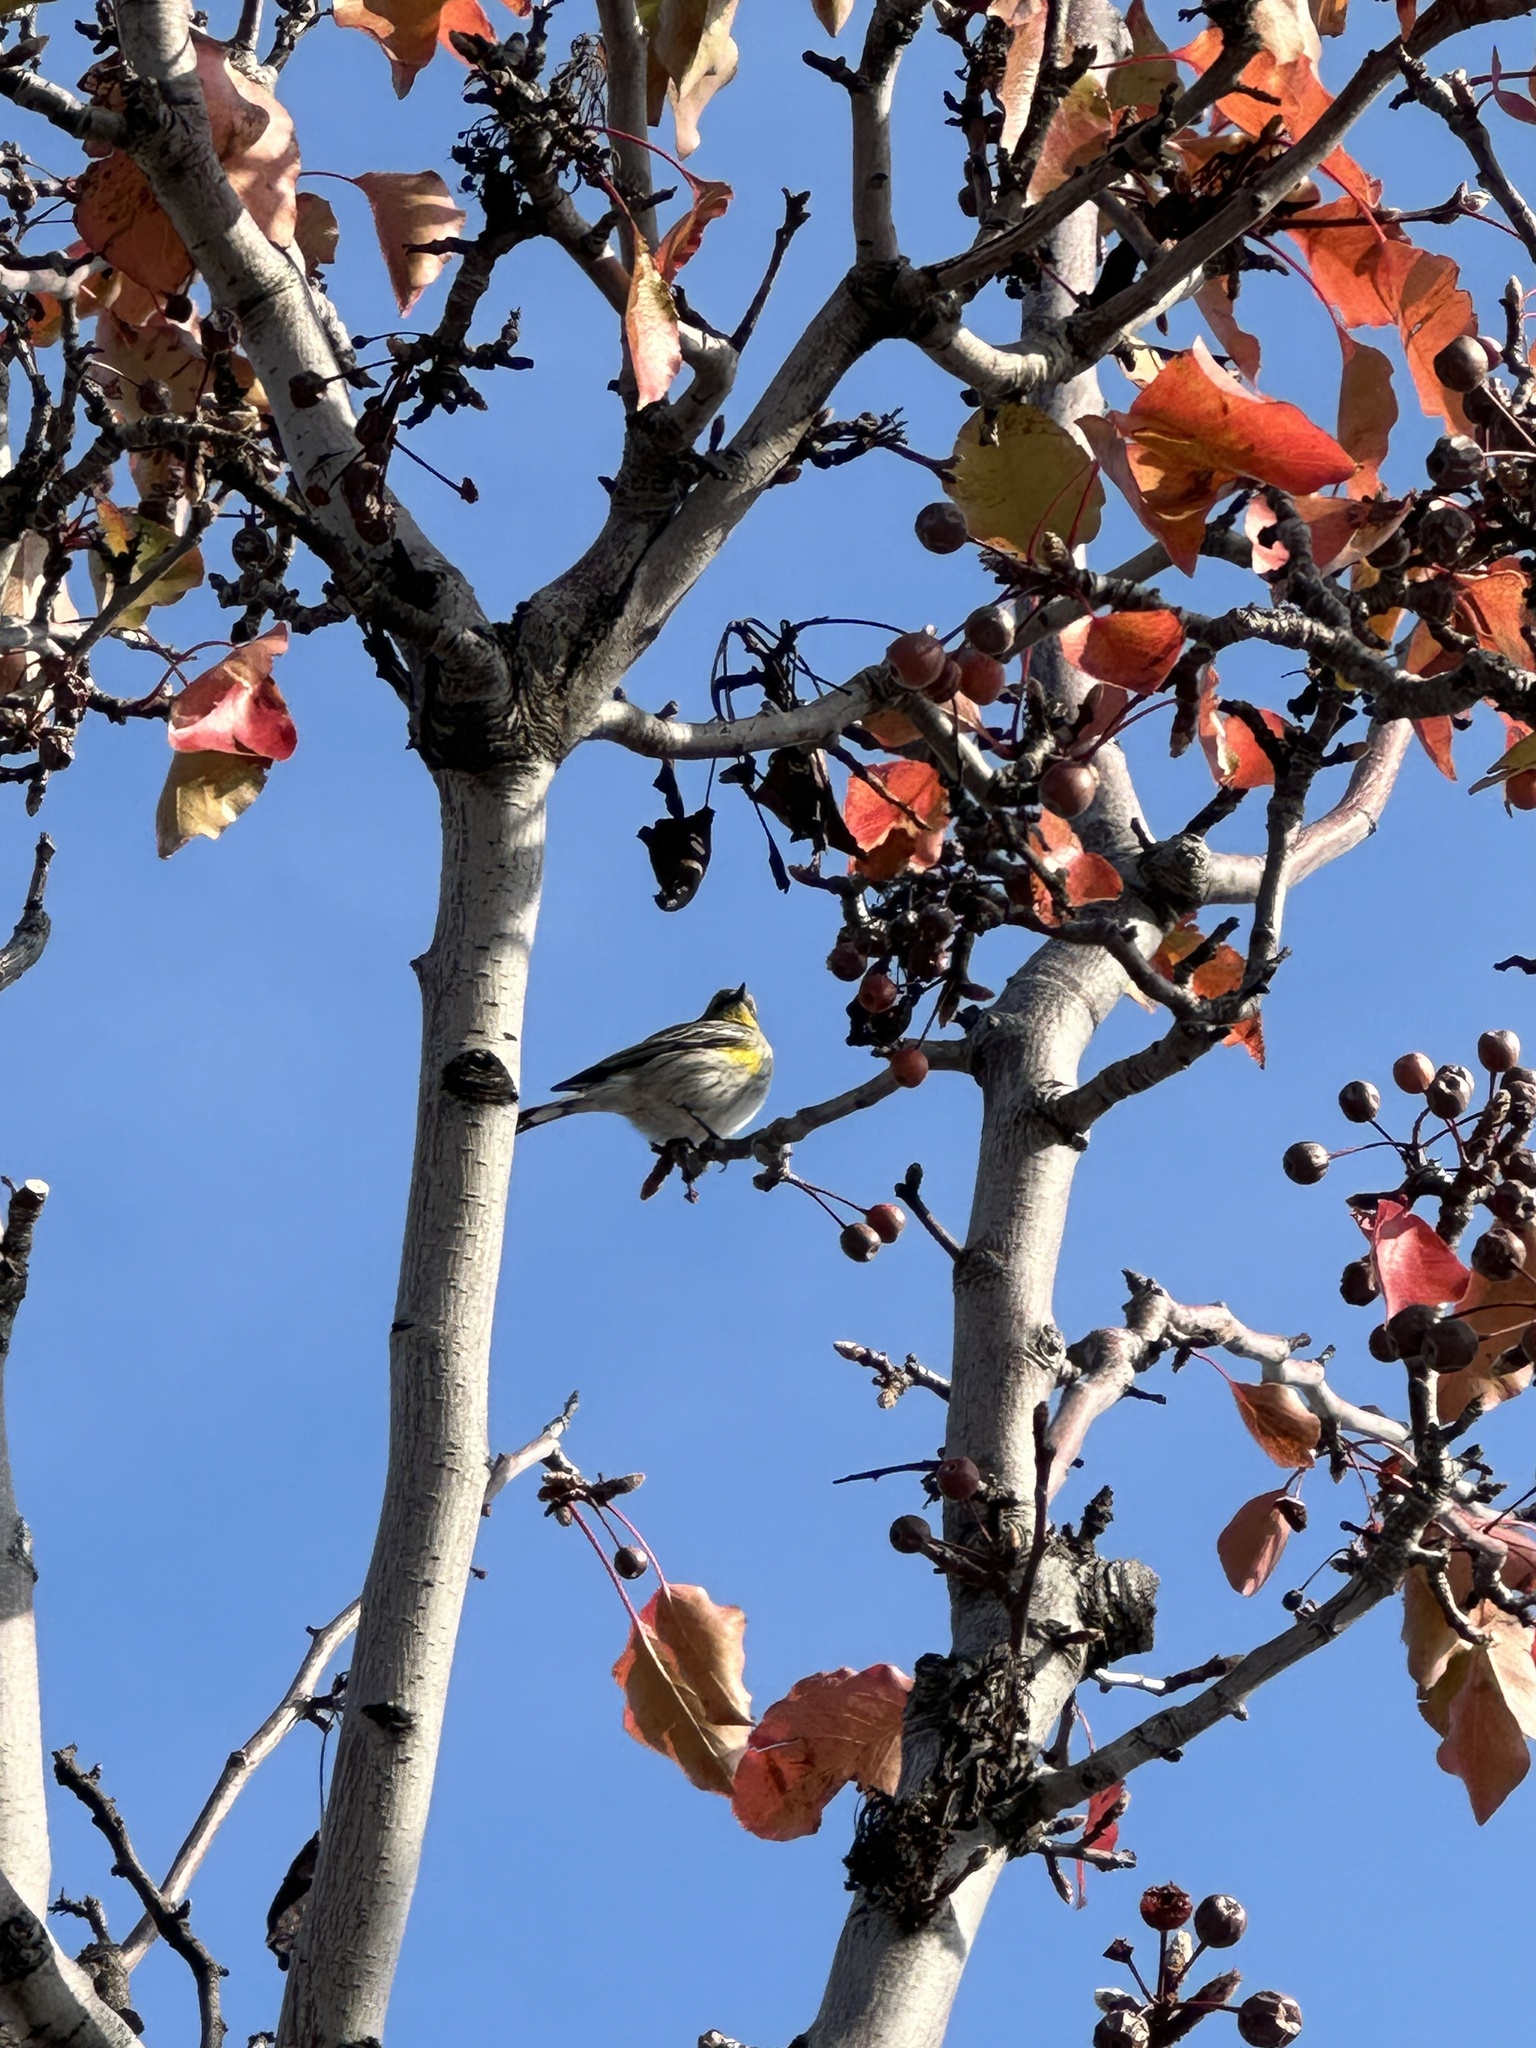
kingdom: Animalia
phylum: Chordata
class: Aves
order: Passeriformes
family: Parulidae
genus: Setophaga
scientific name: Setophaga coronata
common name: Myrtle warbler
